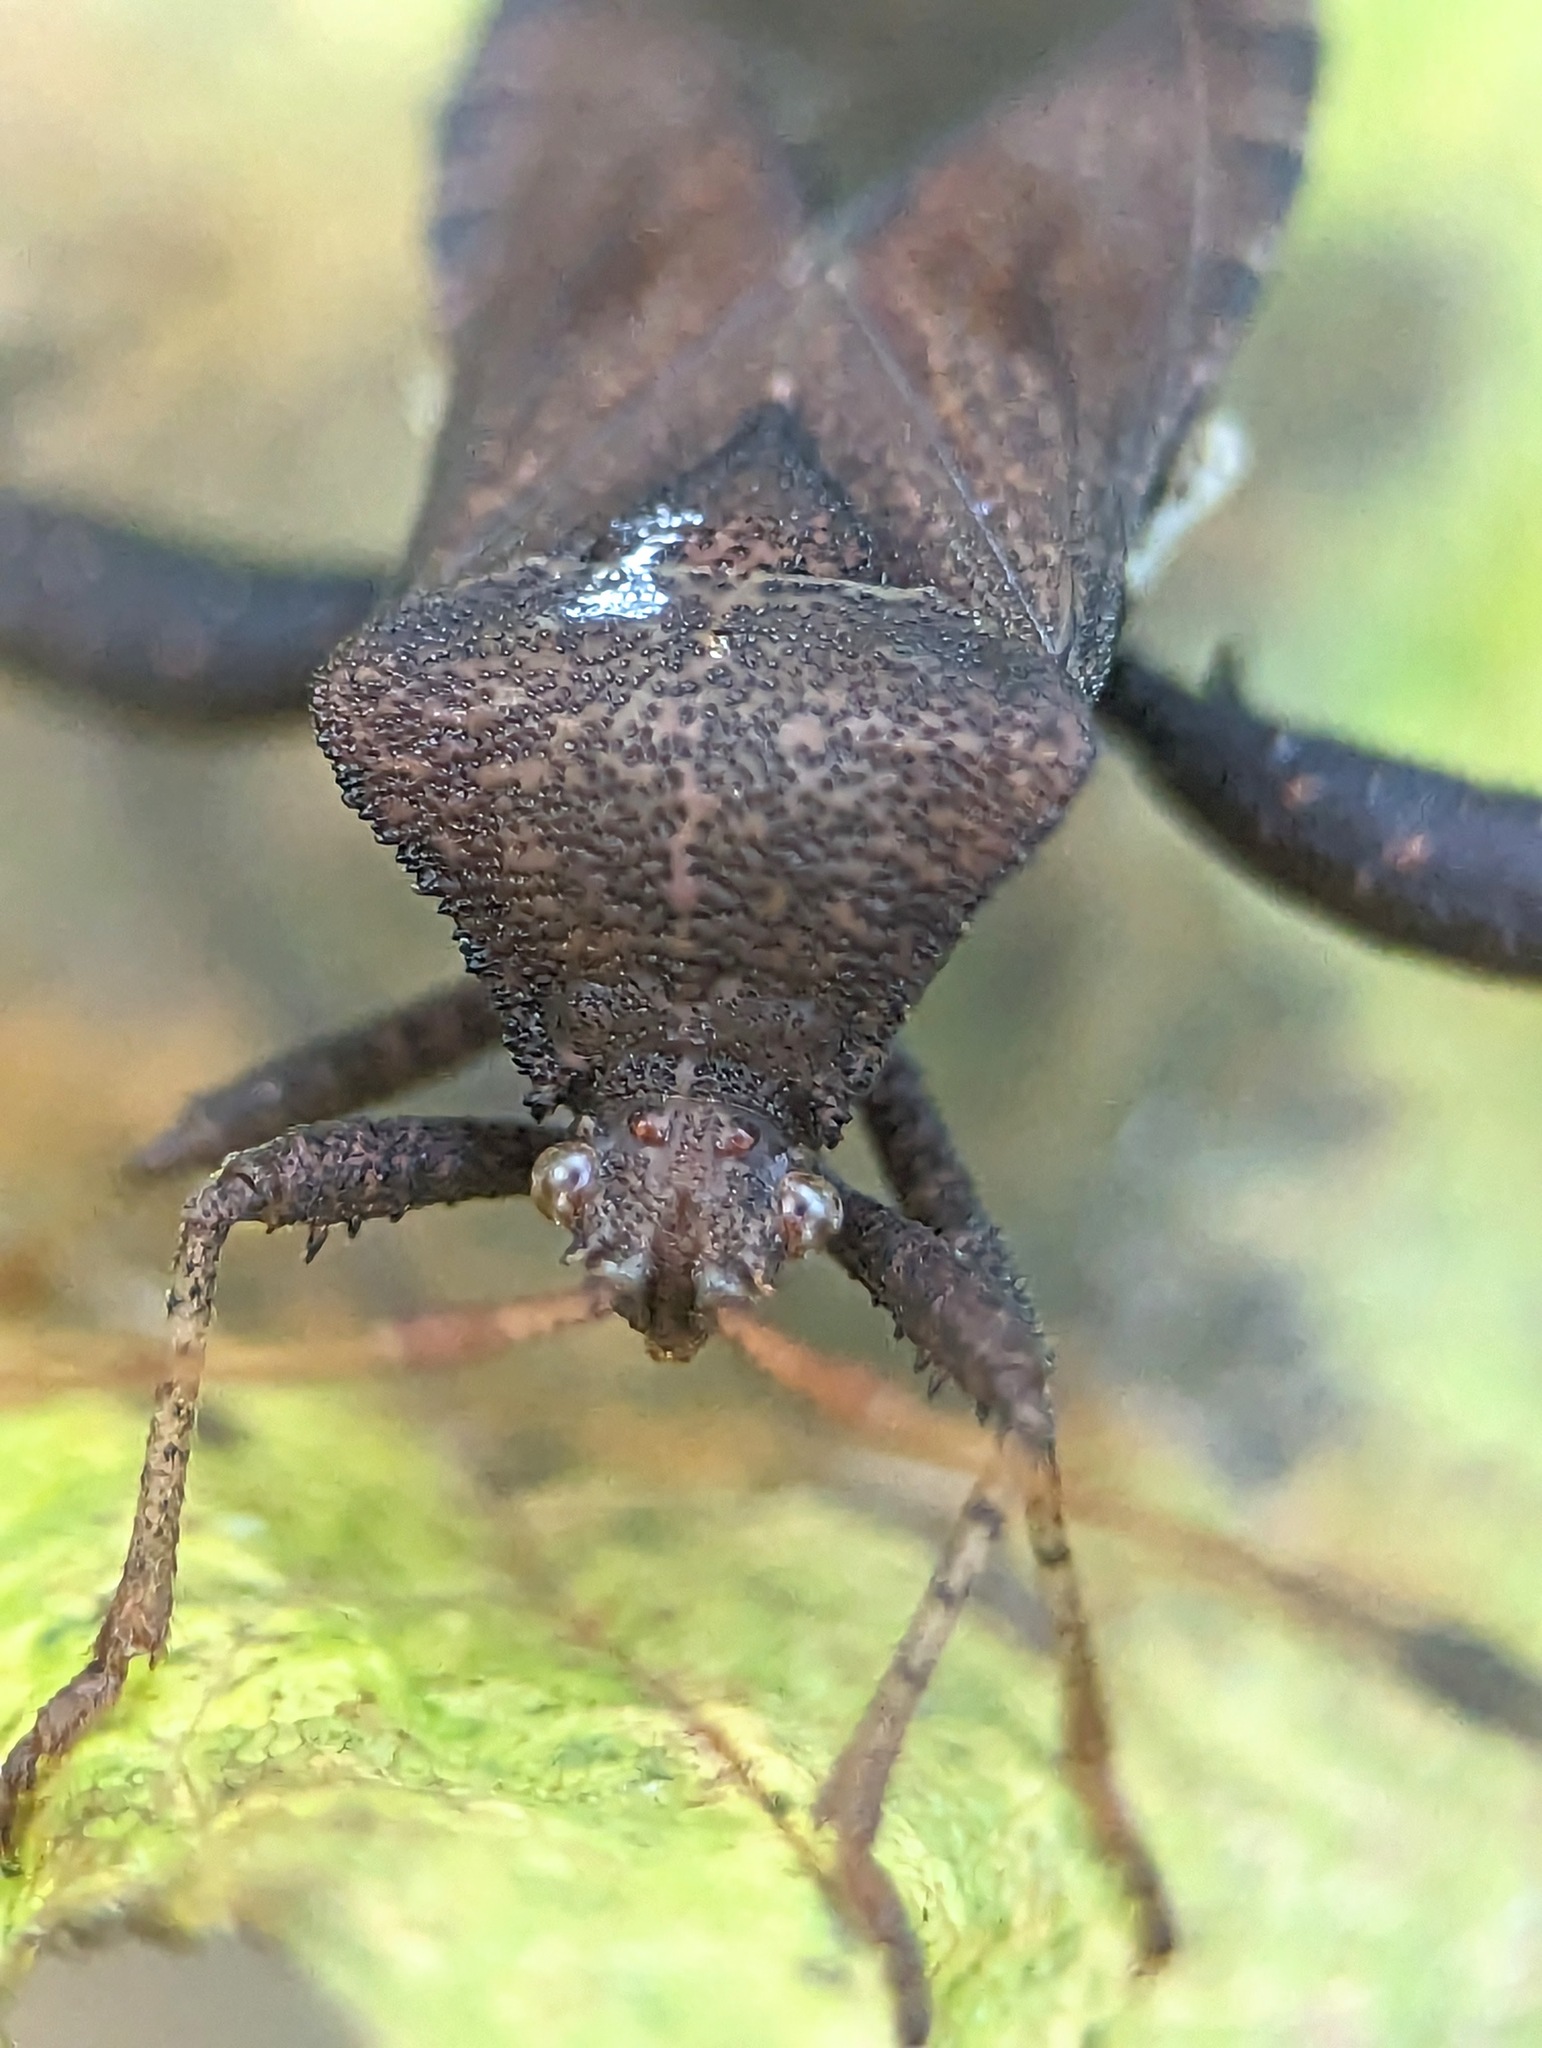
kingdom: Animalia
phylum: Arthropoda
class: Insecta
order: Hemiptera
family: Coreidae
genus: Euthochtha
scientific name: Euthochtha galeator
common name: Helmeted squash bug
